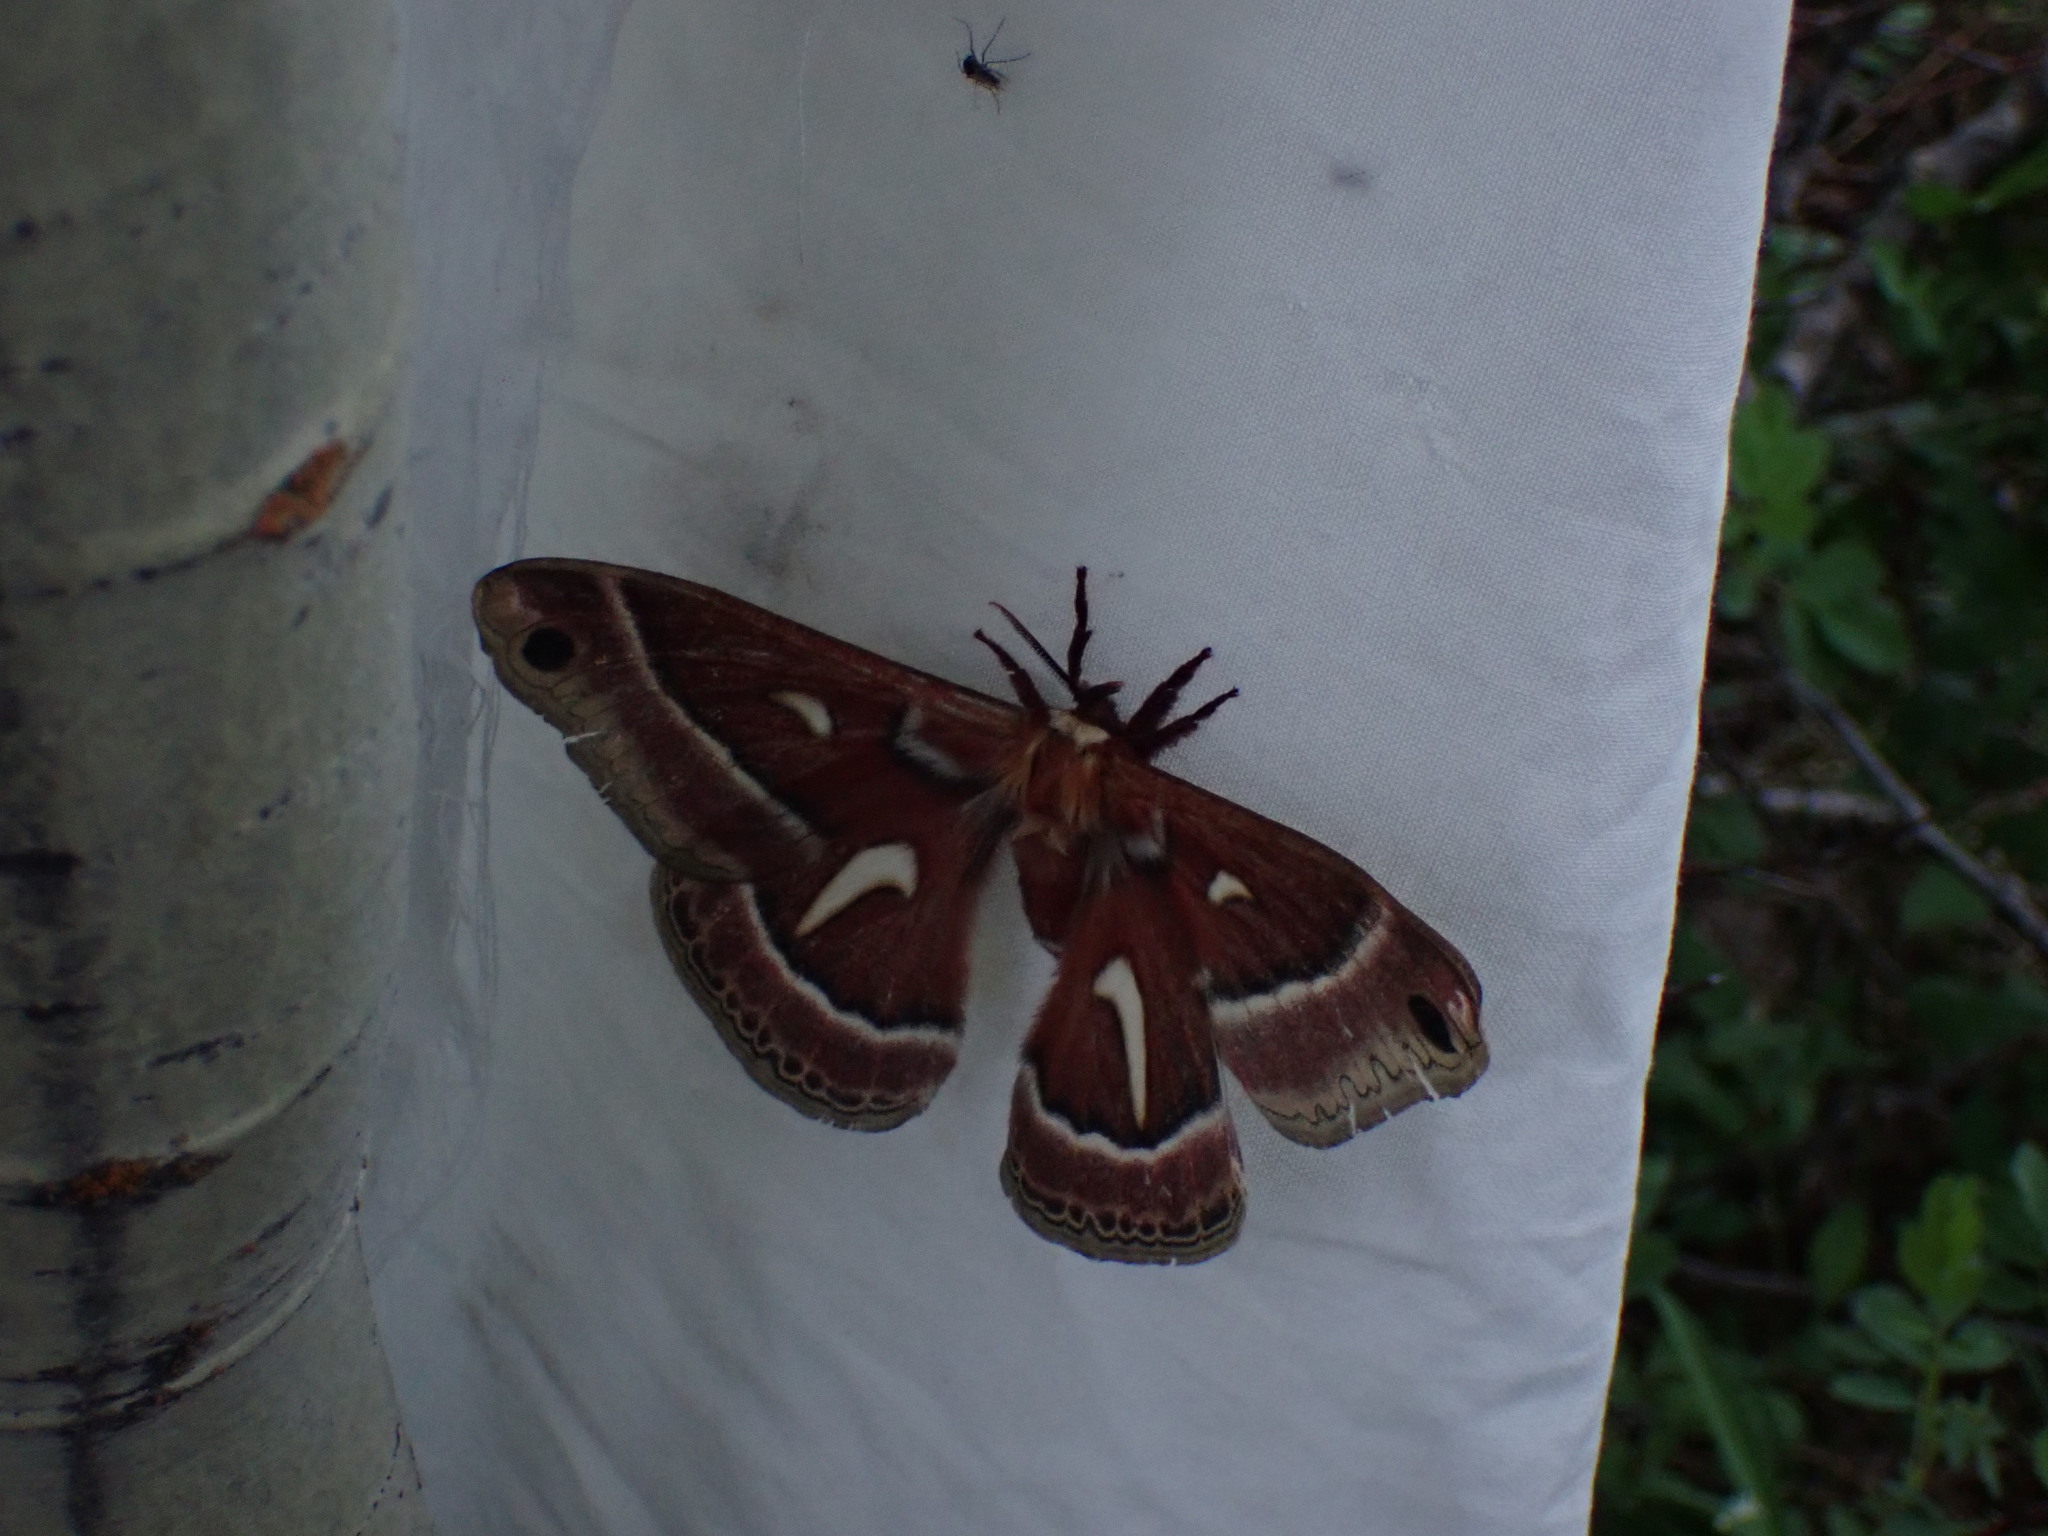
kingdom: Animalia
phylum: Arthropoda
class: Insecta
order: Lepidoptera
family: Saturniidae
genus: Hyalophora
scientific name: Hyalophora euryalus
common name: Ceanothus silkmoth
